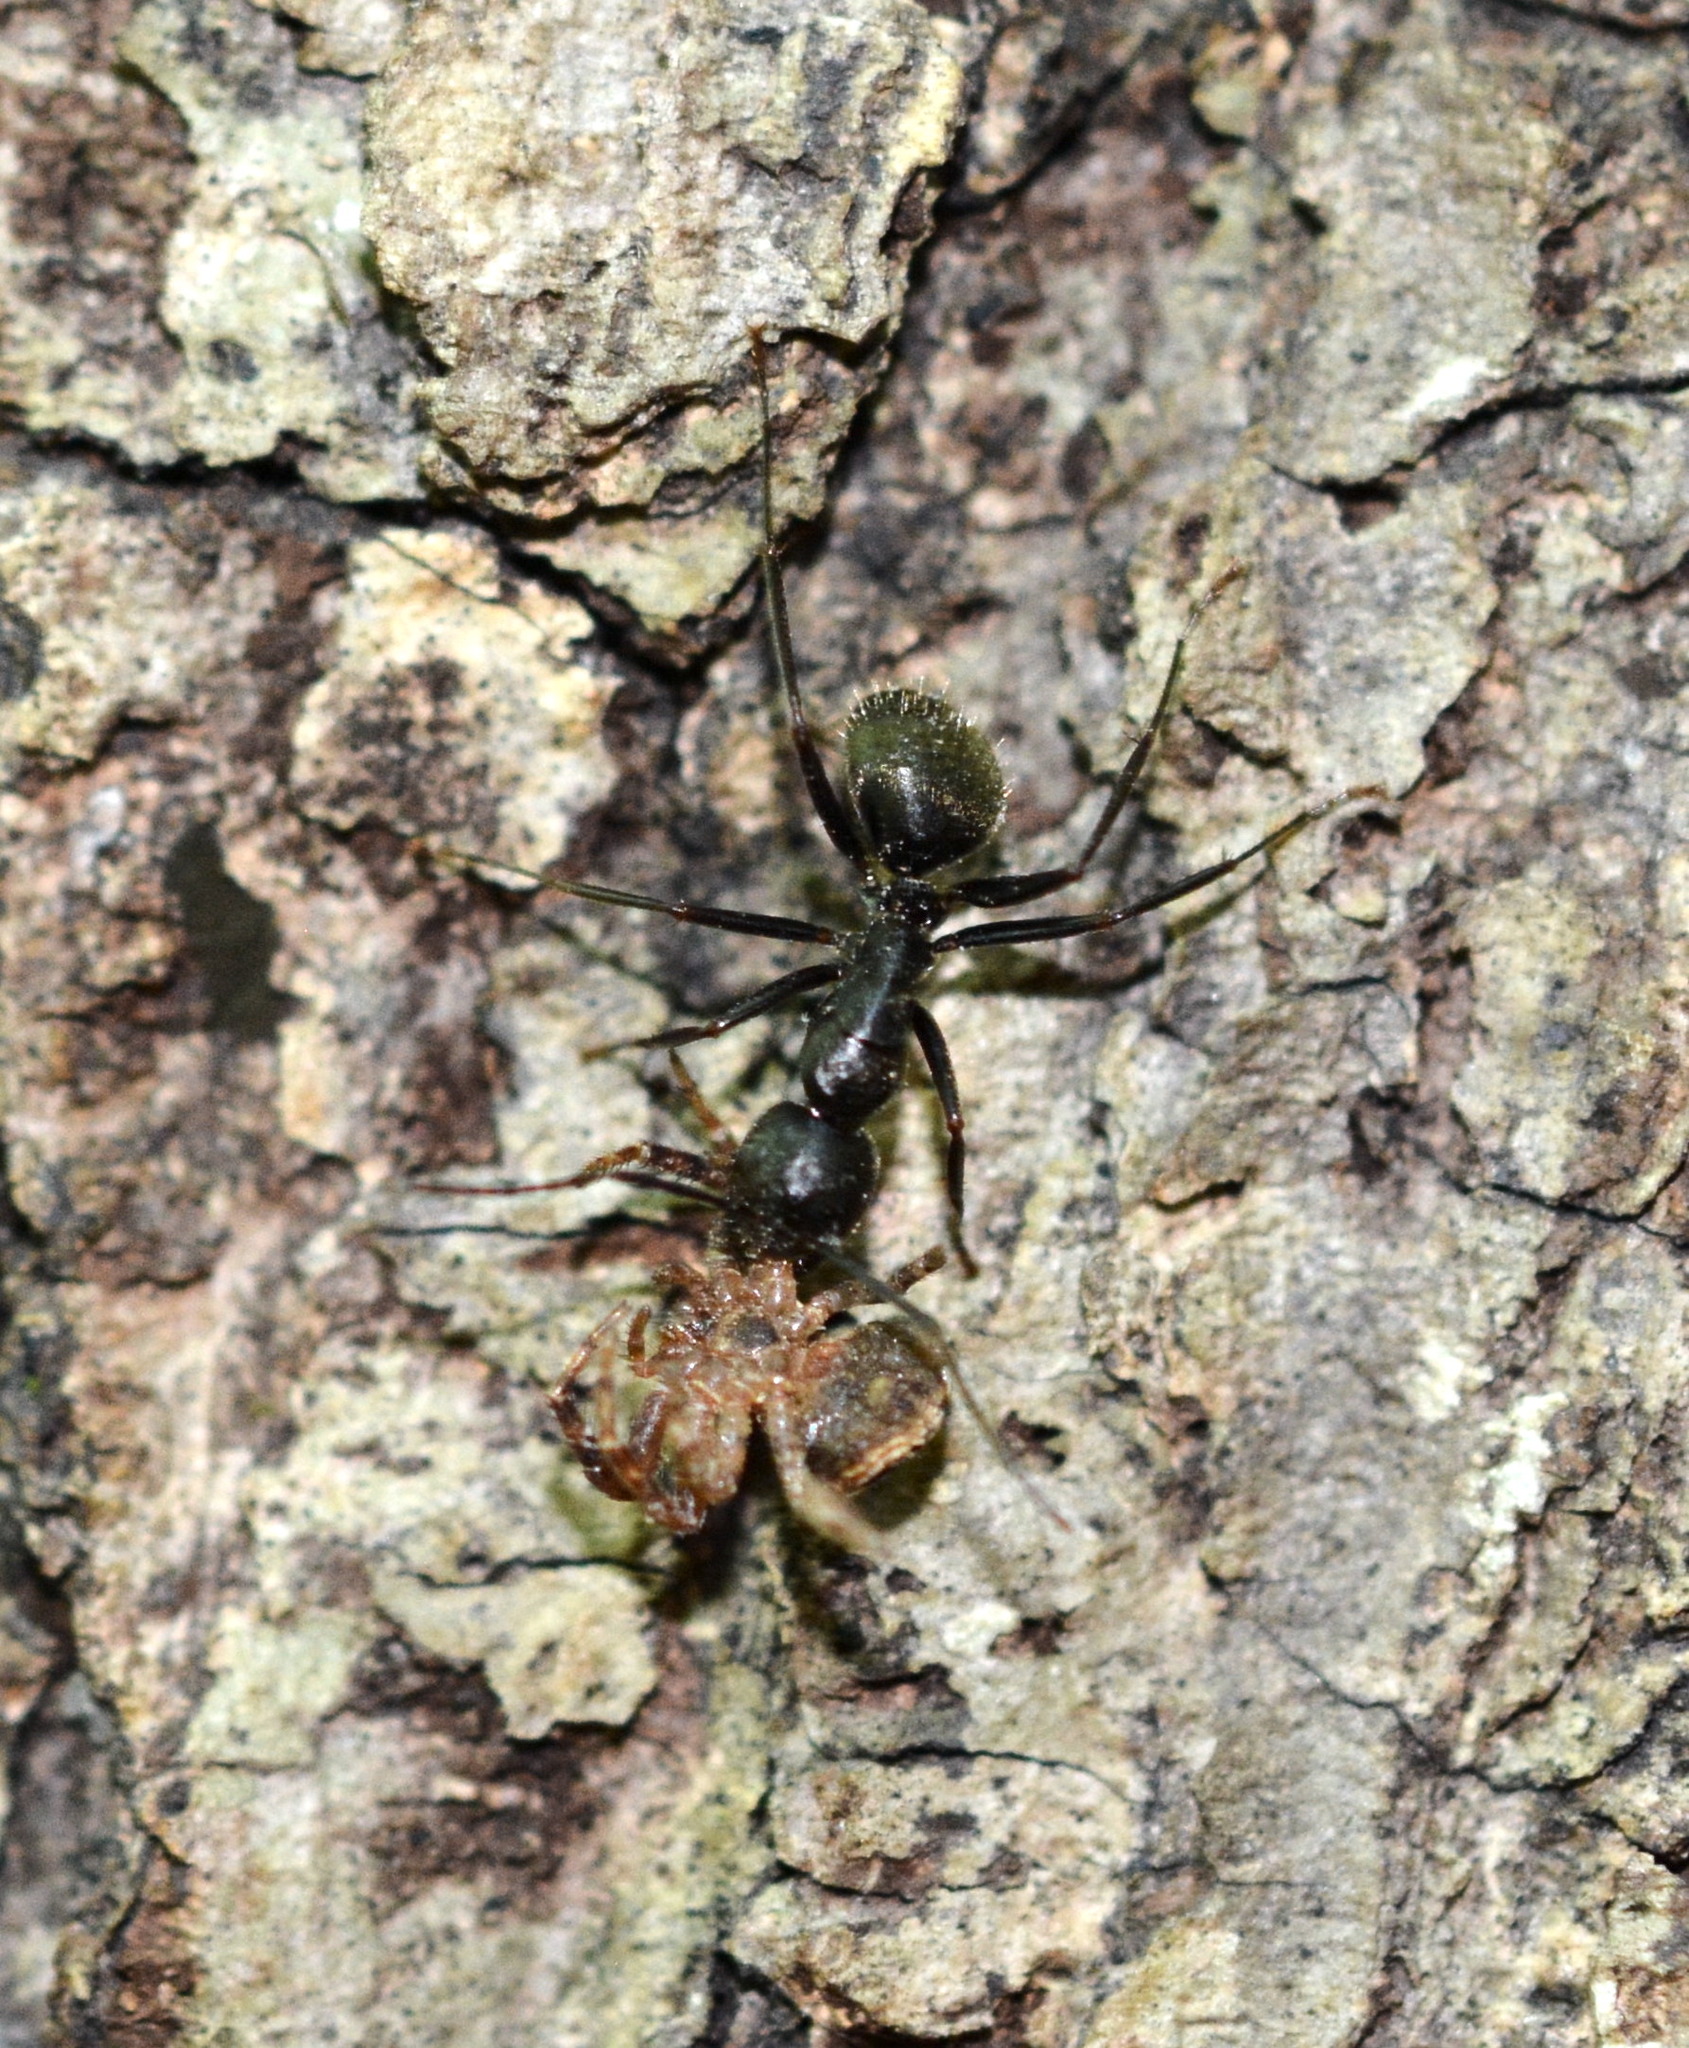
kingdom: Animalia
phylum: Arthropoda
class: Insecta
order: Hymenoptera
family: Formicidae
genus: Camponotus
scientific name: Camponotus pennsylvanicus
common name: Black carpenter ant
